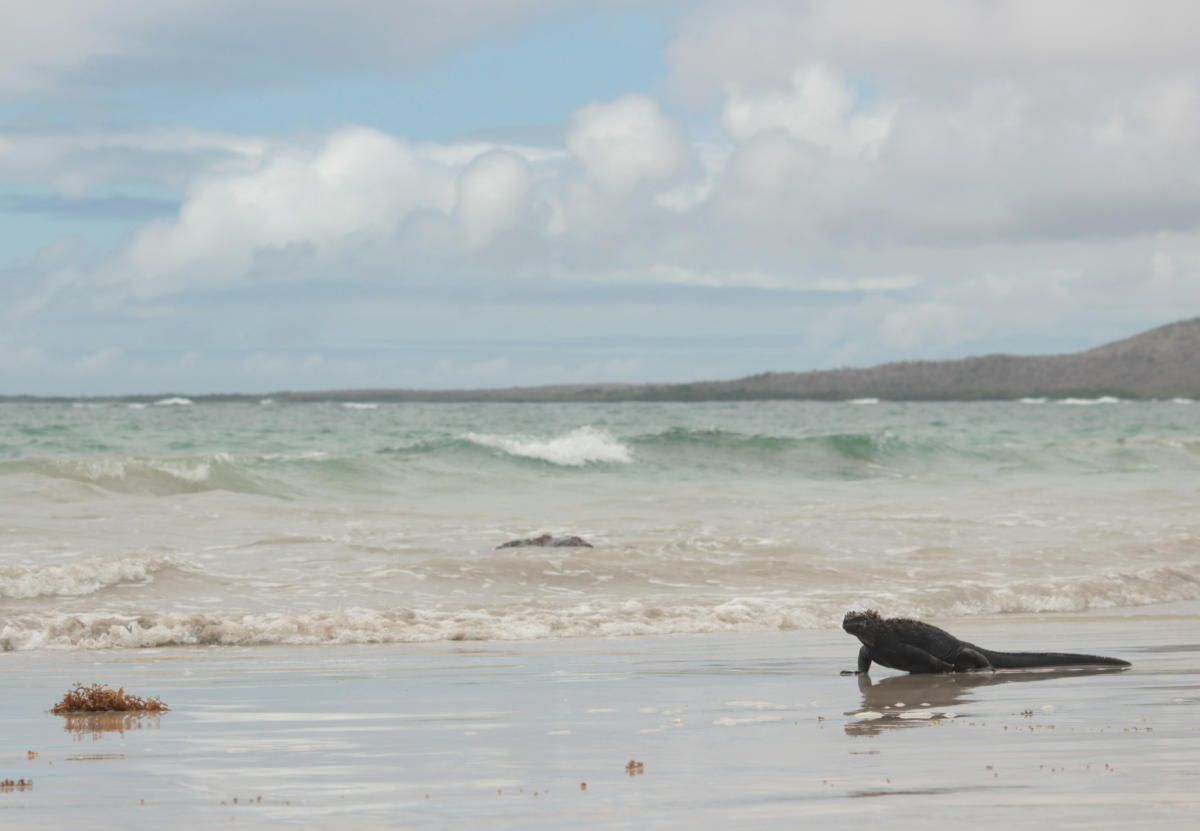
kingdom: Animalia
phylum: Chordata
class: Squamata
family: Iguanidae
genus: Amblyrhynchus
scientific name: Amblyrhynchus cristatus
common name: Marine iguana
